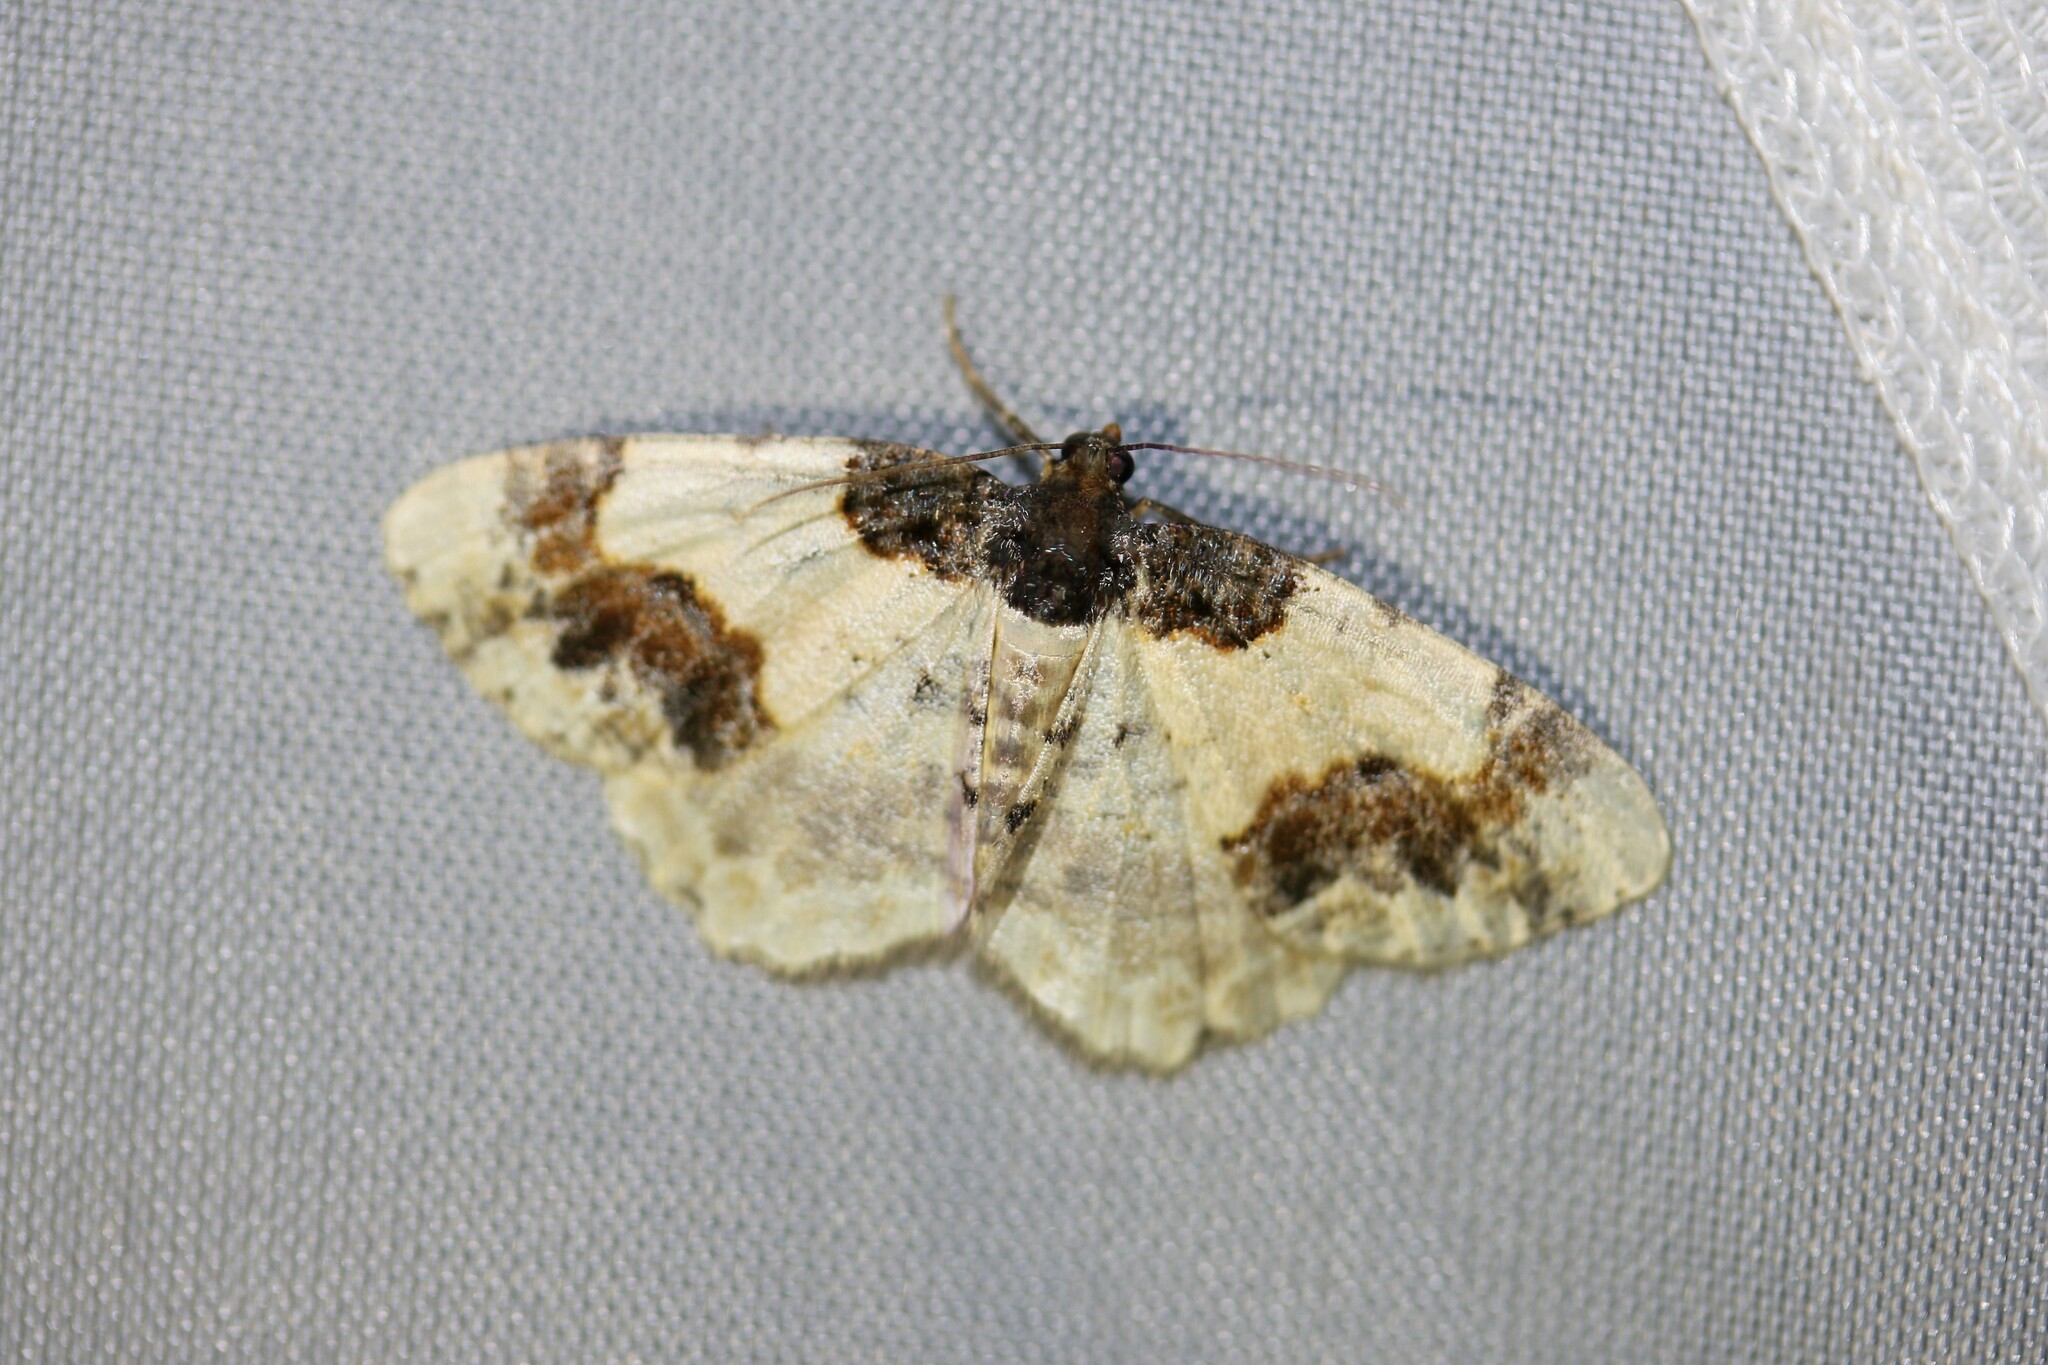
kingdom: Animalia
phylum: Arthropoda
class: Insecta
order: Lepidoptera
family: Geometridae
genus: Ligdia
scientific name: Ligdia adustata
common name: Scorched carpet
